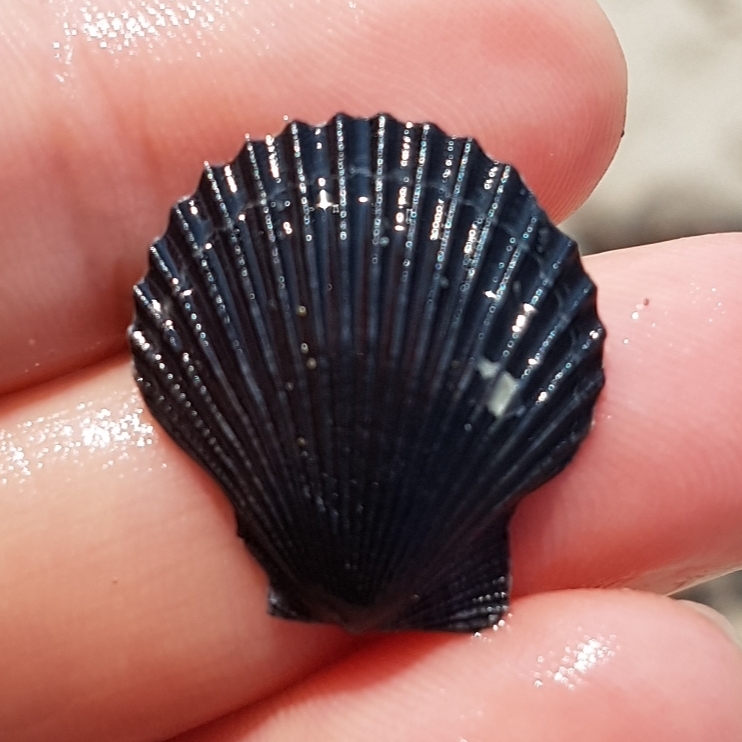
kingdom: Animalia
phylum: Mollusca
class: Bivalvia
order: Pectinida
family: Pectinidae
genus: Aequipecten
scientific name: Aequipecten opercularis
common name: Queen scallop
